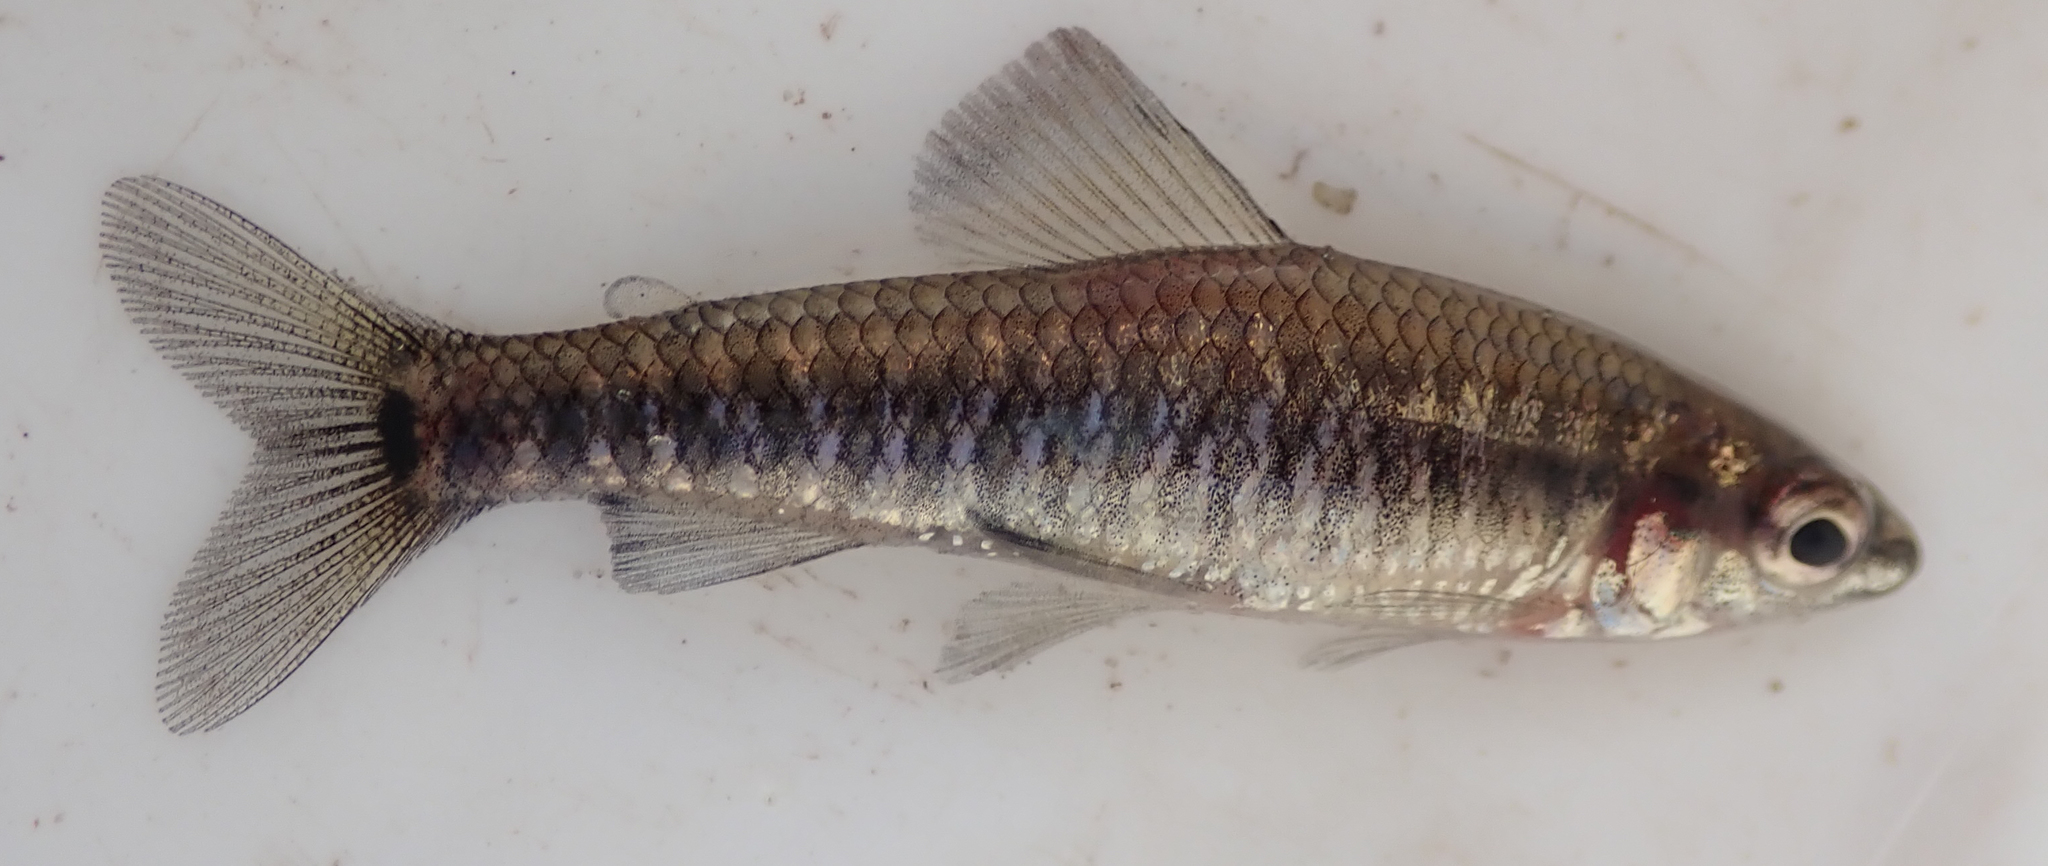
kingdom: Animalia
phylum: Chordata
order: Characiformes
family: Distichodontidae
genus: Nannocharax
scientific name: Nannocharax multifasciatus
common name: Multibar citharine
